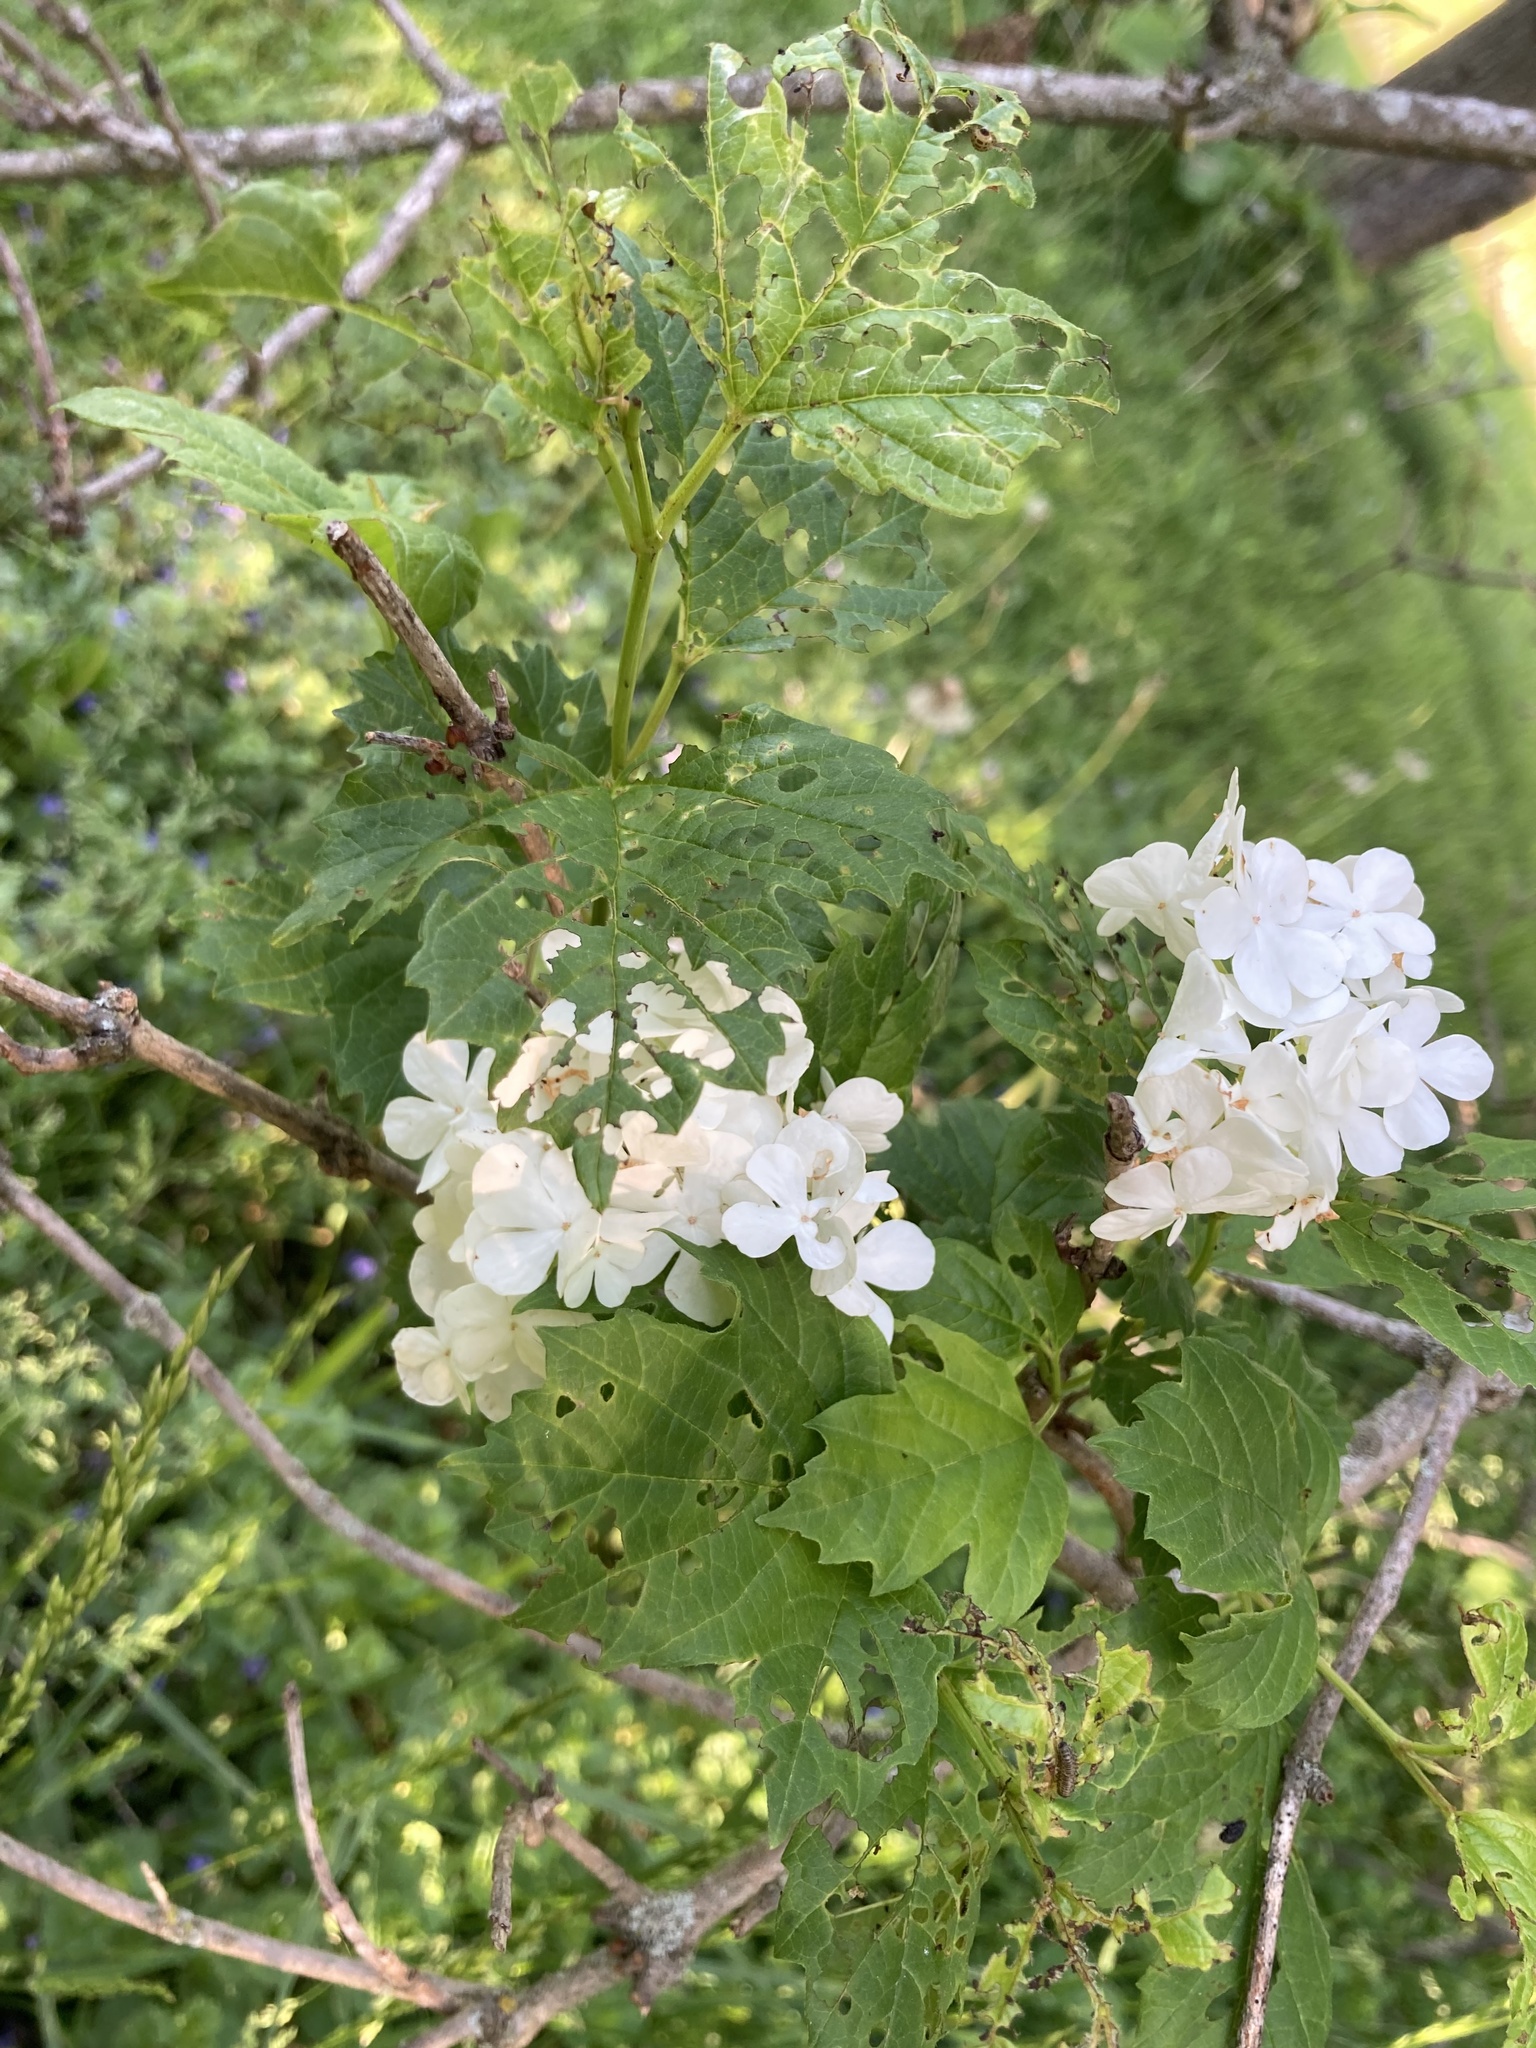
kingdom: Plantae
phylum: Tracheophyta
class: Magnoliopsida
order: Dipsacales
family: Viburnaceae
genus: Viburnum
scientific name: Viburnum opulus
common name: Guelder-rose
